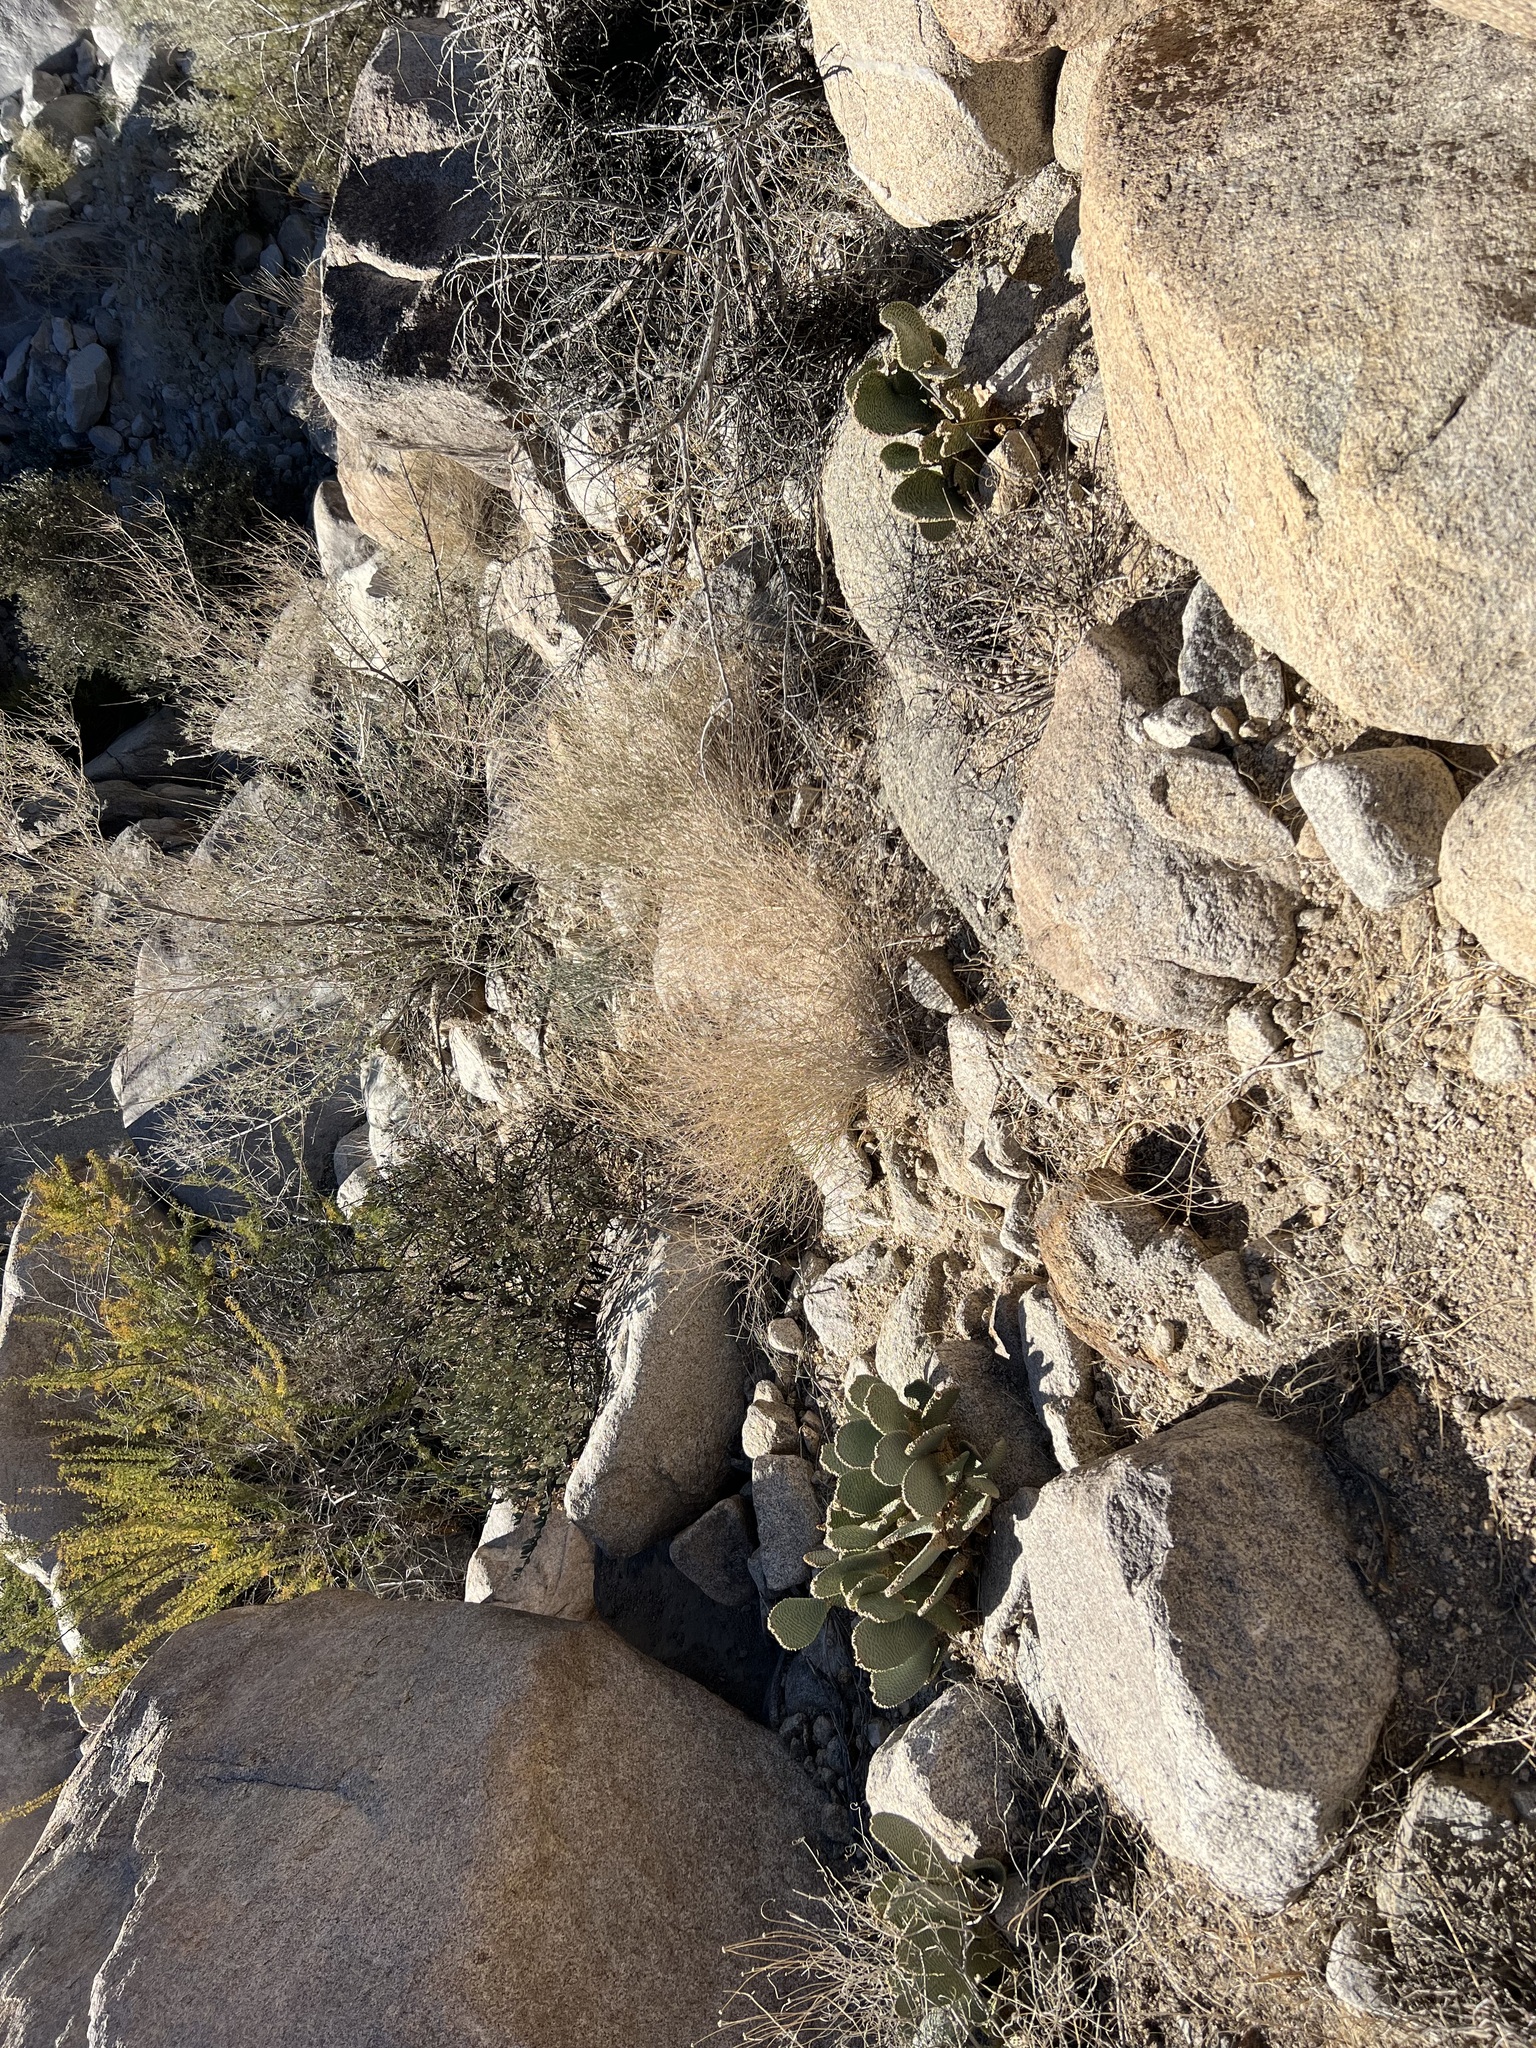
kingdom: Plantae
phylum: Tracheophyta
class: Magnoliopsida
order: Caryophyllales
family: Cactaceae
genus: Opuntia
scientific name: Opuntia basilaris
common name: Beavertail prickly-pear
